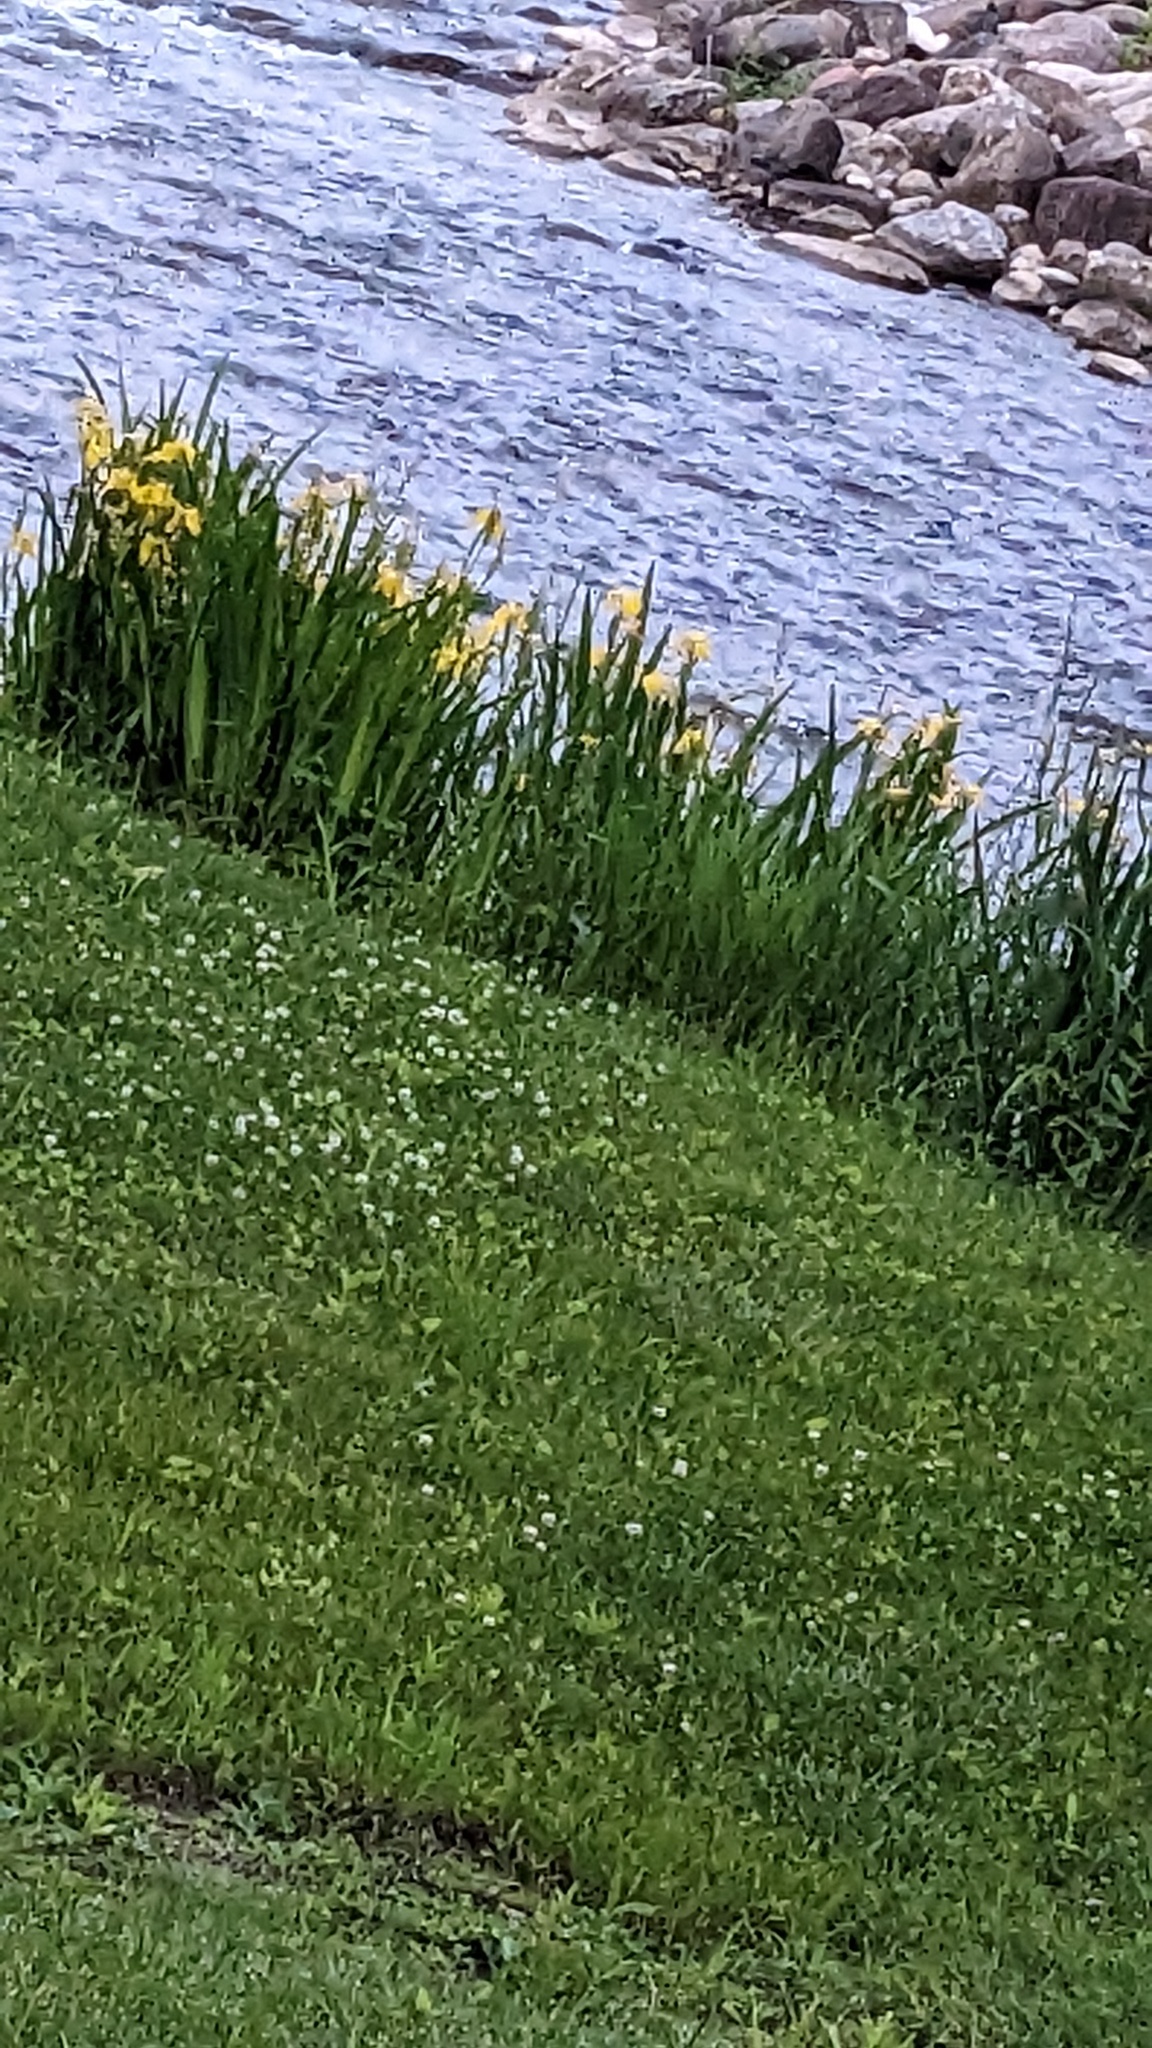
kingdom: Plantae
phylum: Tracheophyta
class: Liliopsida
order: Asparagales
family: Iridaceae
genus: Iris
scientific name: Iris pseudacorus
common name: Yellow flag
